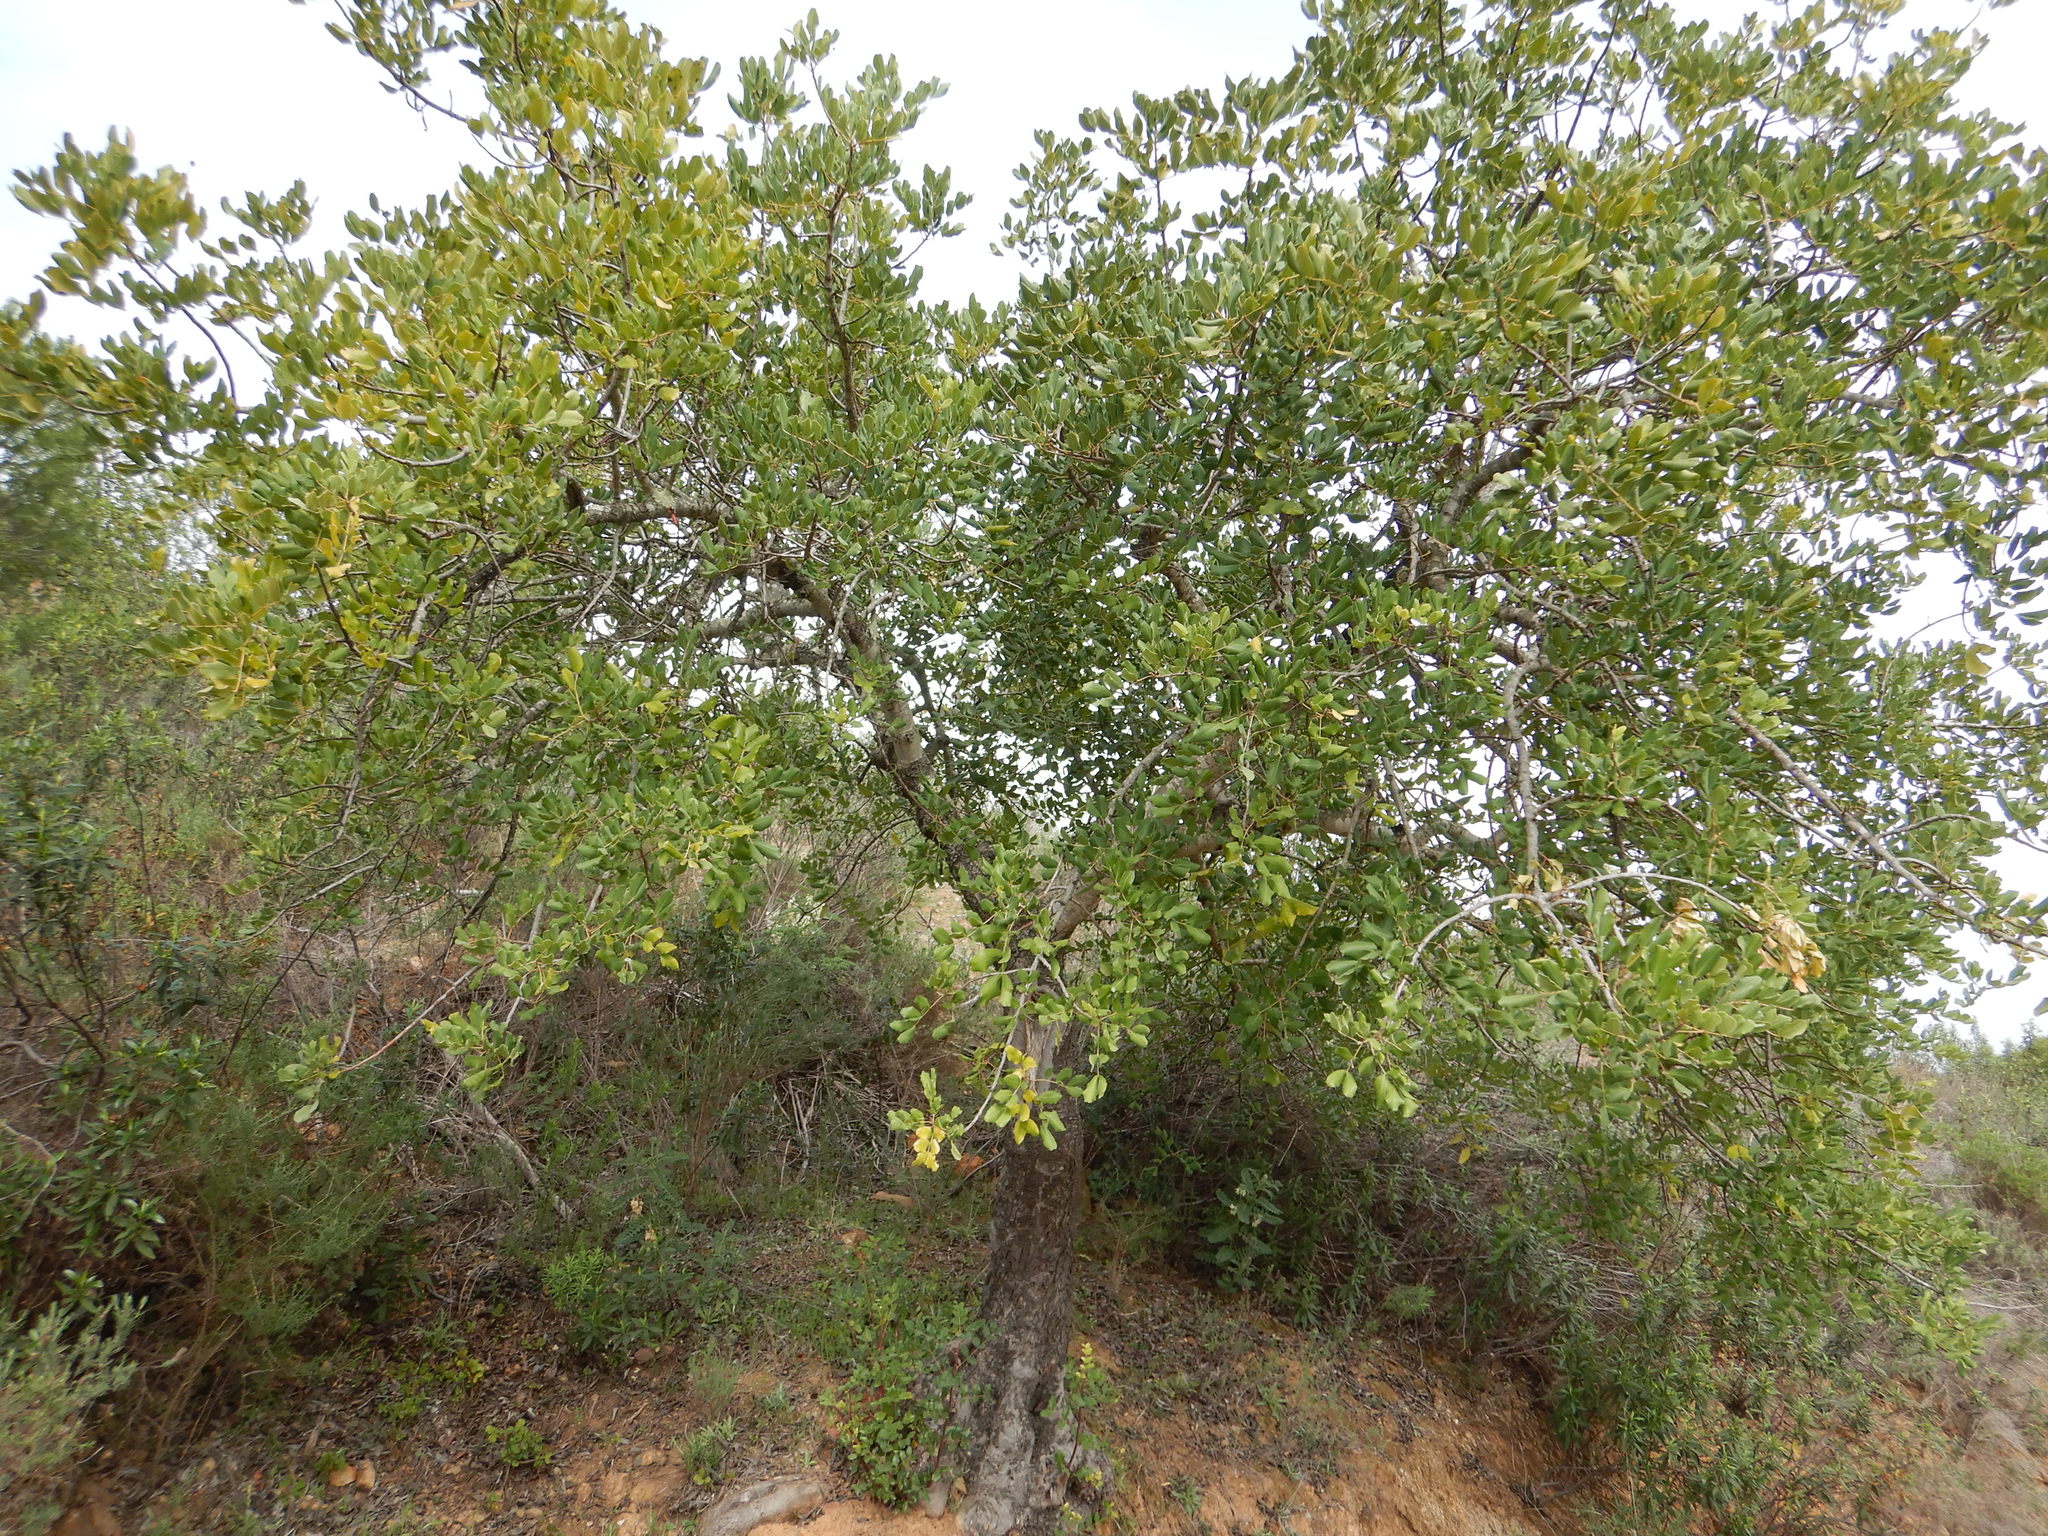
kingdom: Plantae
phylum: Tracheophyta
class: Magnoliopsida
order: Fabales
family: Fabaceae
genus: Ceratonia
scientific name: Ceratonia siliqua
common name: Carob
